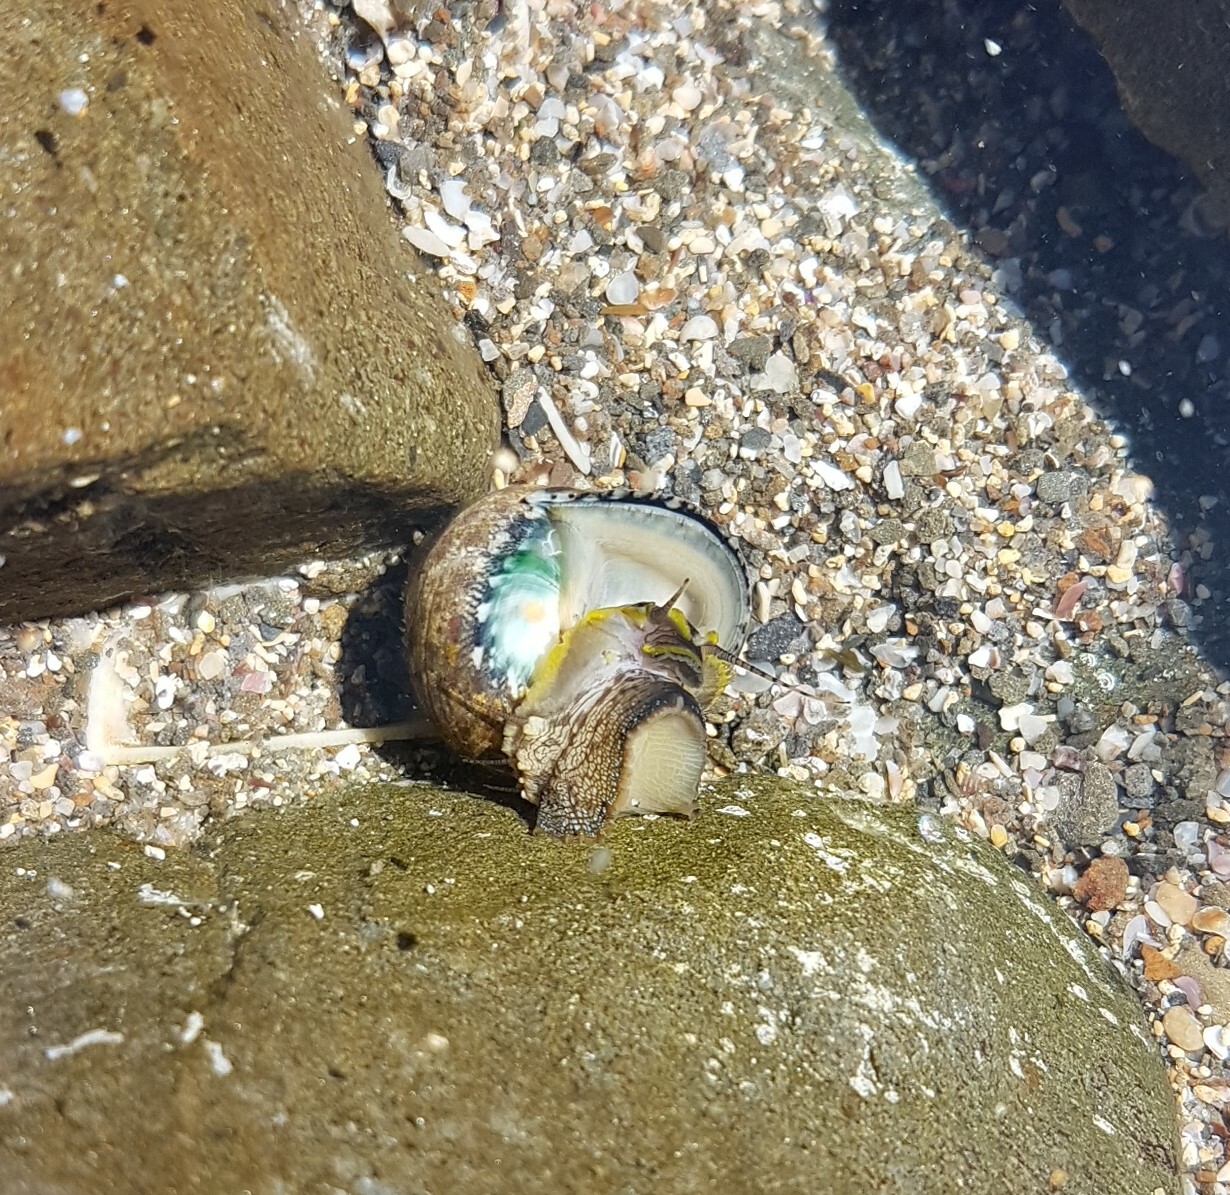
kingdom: Animalia
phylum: Mollusca
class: Gastropoda
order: Trochida
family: Trochidae
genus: Phorcus
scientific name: Phorcus articulatus
